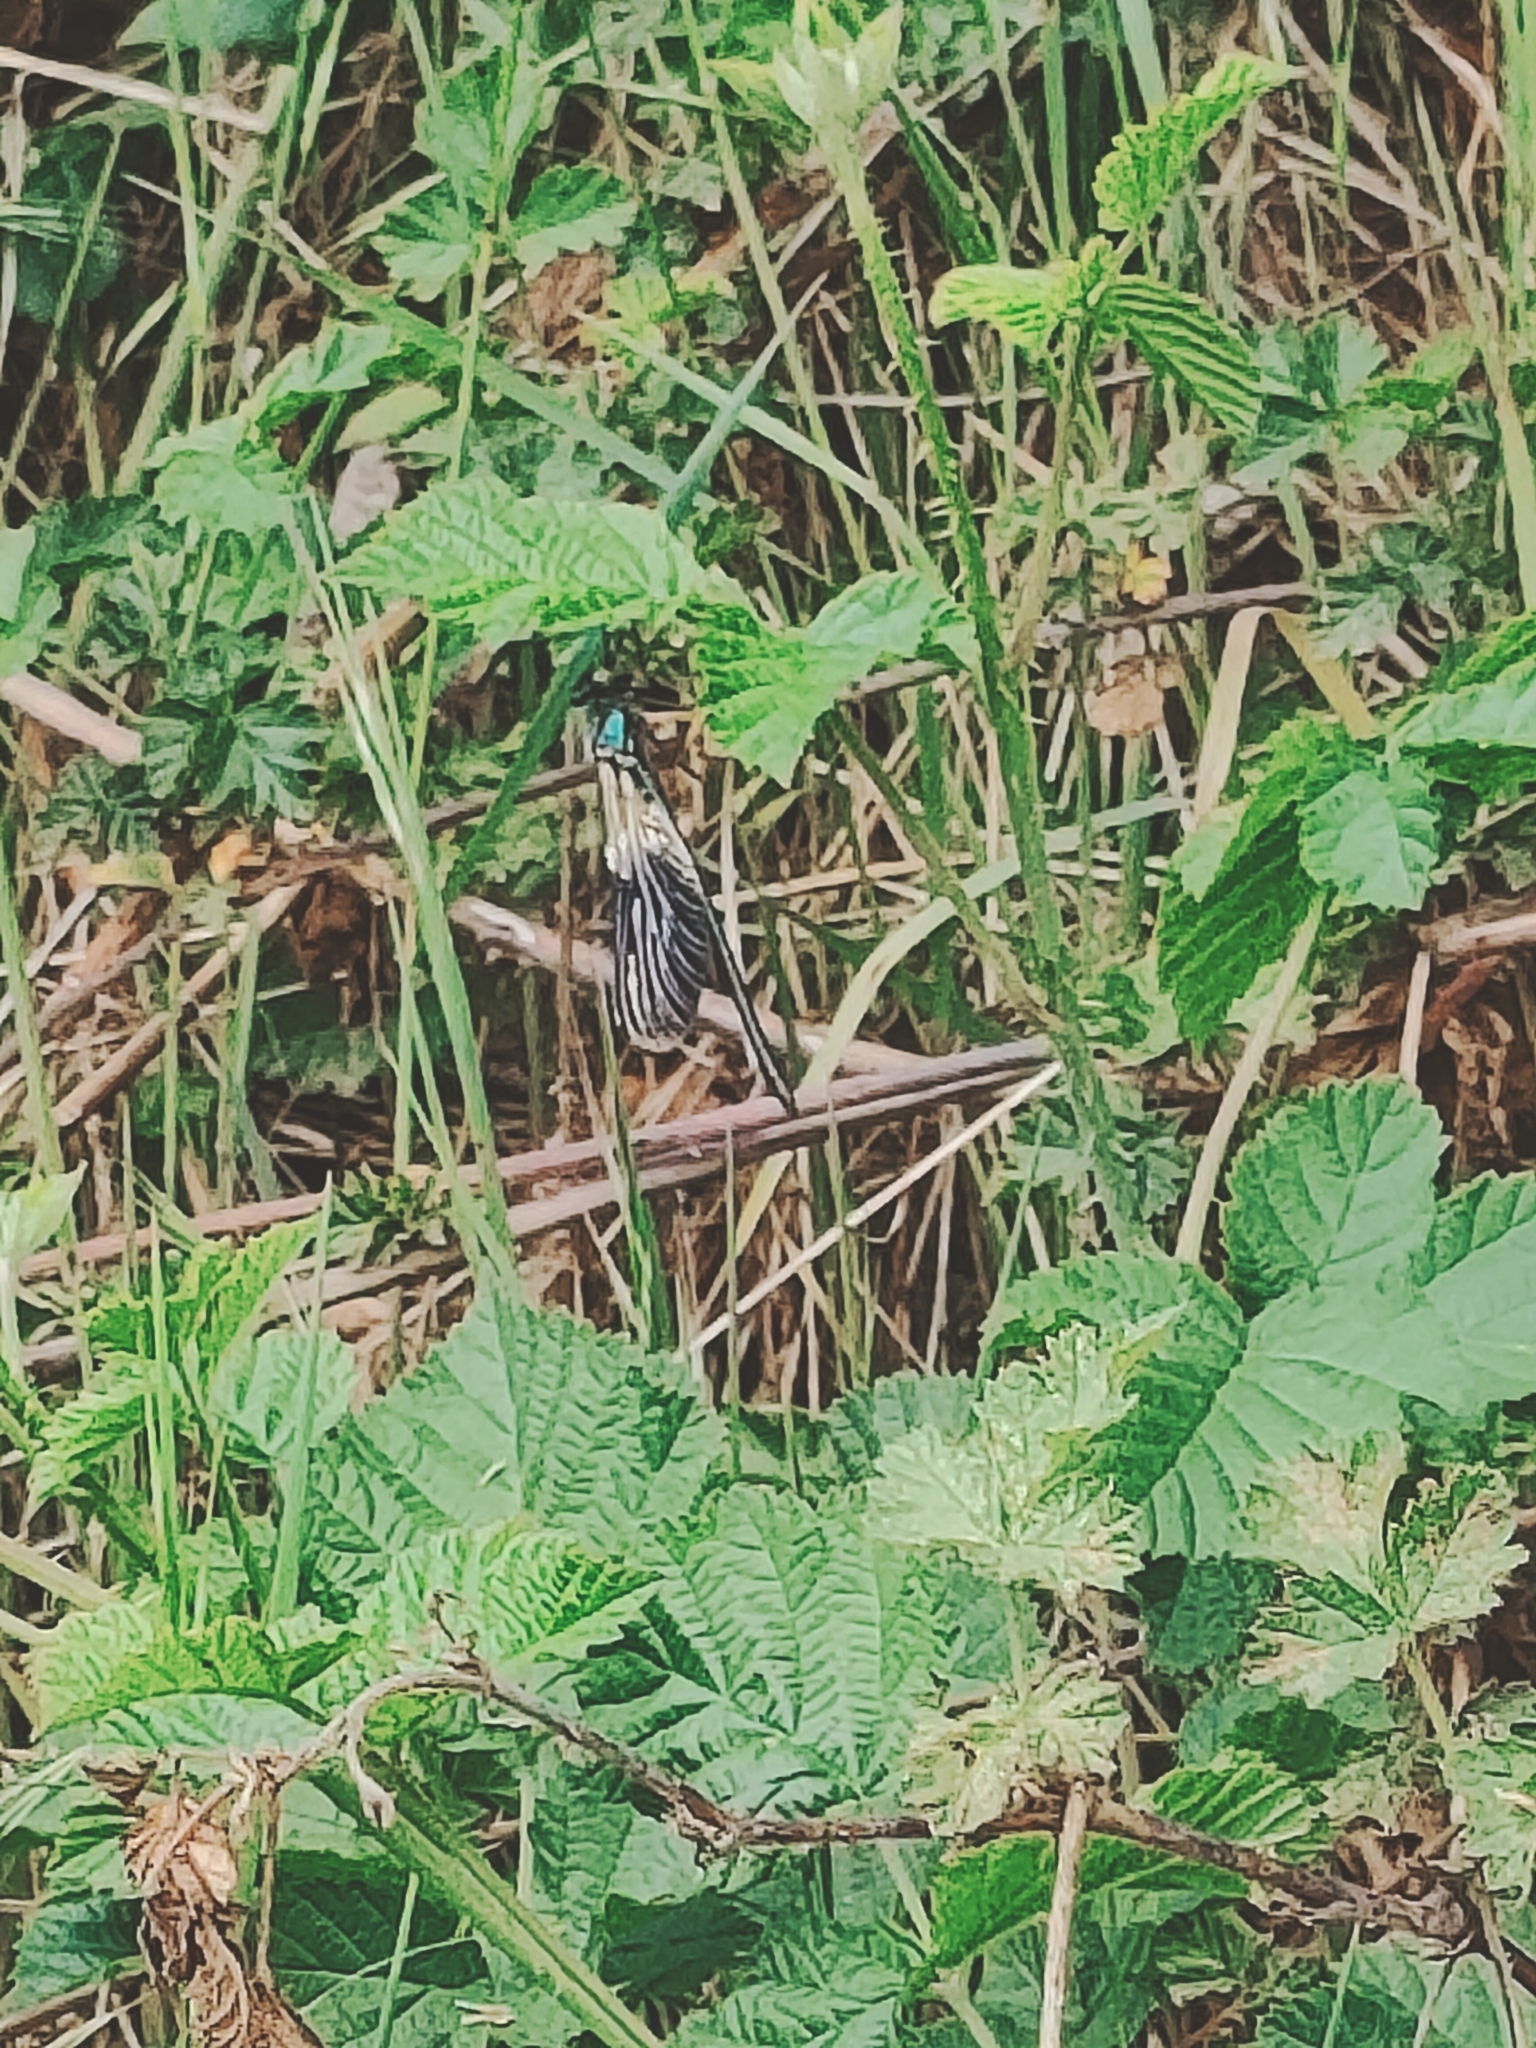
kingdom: Animalia
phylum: Arthropoda
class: Insecta
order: Odonata
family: Calopterygidae
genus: Calopteryx
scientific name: Calopteryx splendens
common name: Banded demoiselle
